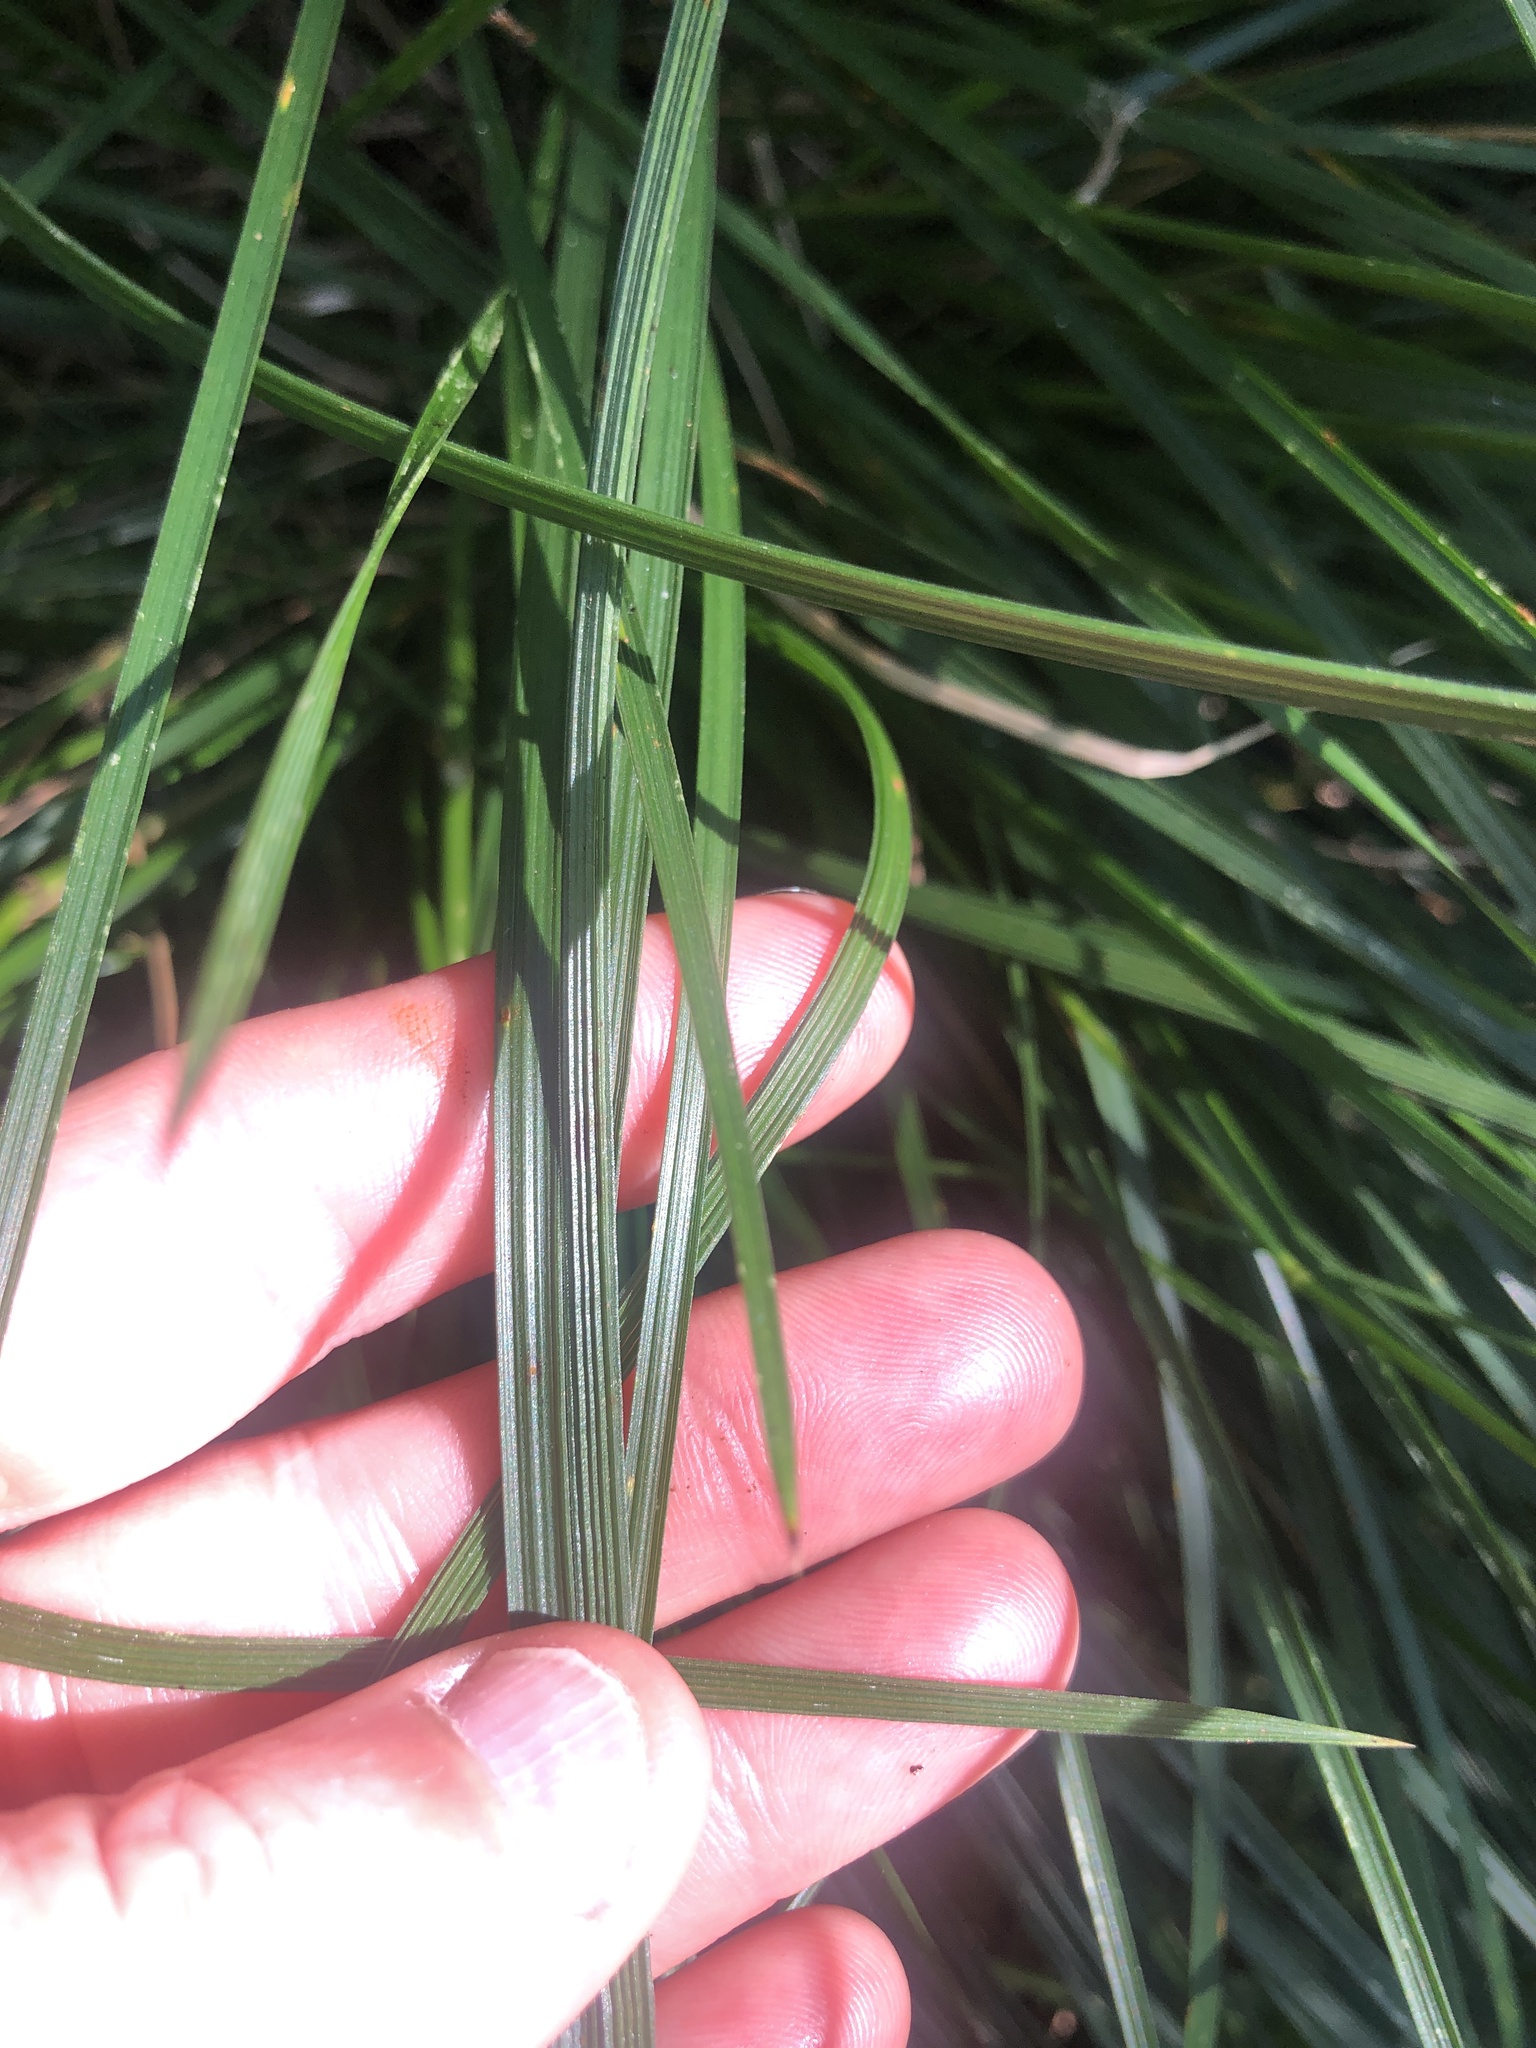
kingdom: Plantae
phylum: Tracheophyta
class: Liliopsida
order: Poales
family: Poaceae
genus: Deschampsia
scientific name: Deschampsia cespitosa
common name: Tufted hair-grass
